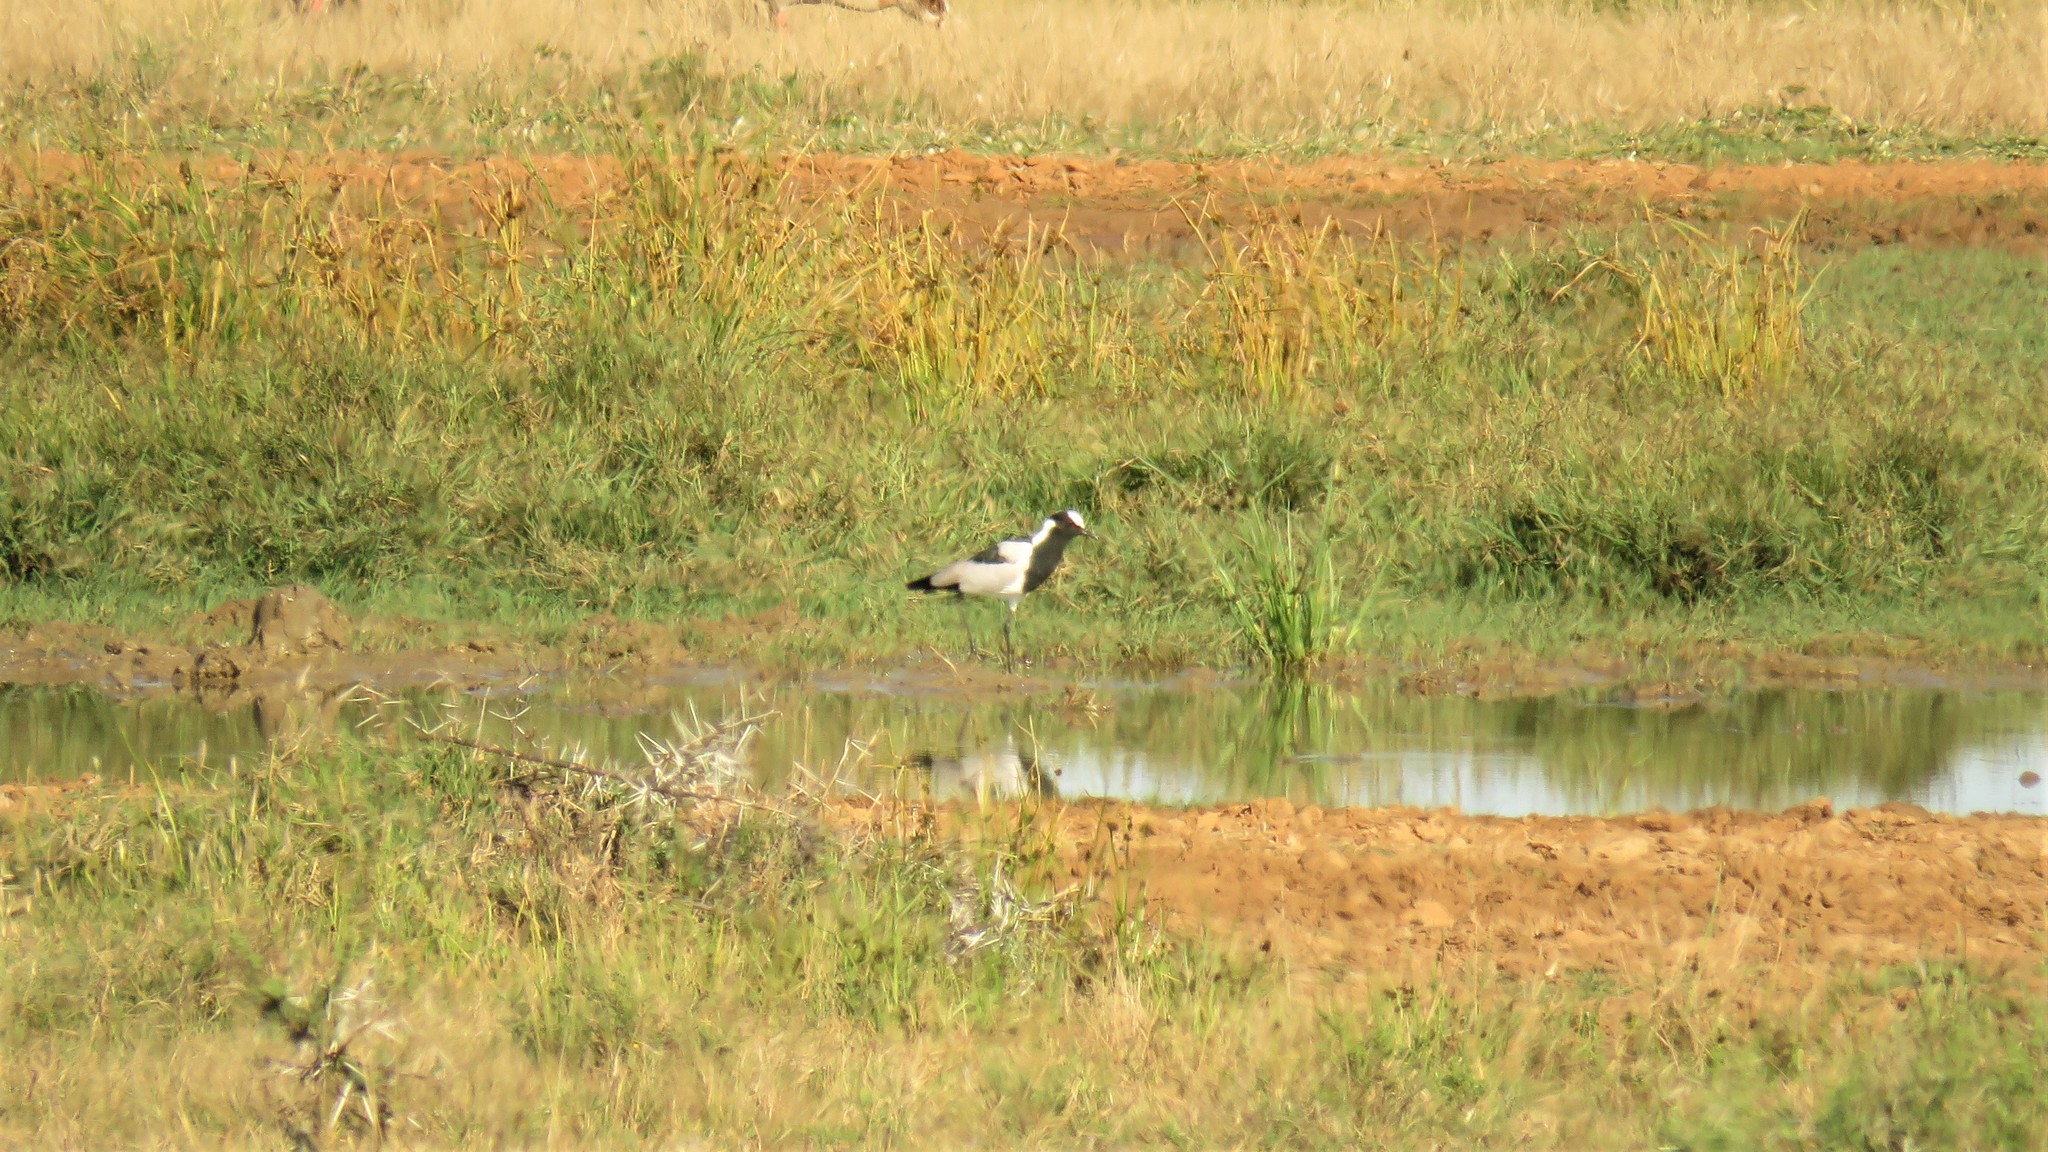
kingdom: Animalia
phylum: Chordata
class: Aves
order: Charadriiformes
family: Charadriidae
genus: Vanellus
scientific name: Vanellus armatus
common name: Blacksmith lapwing
